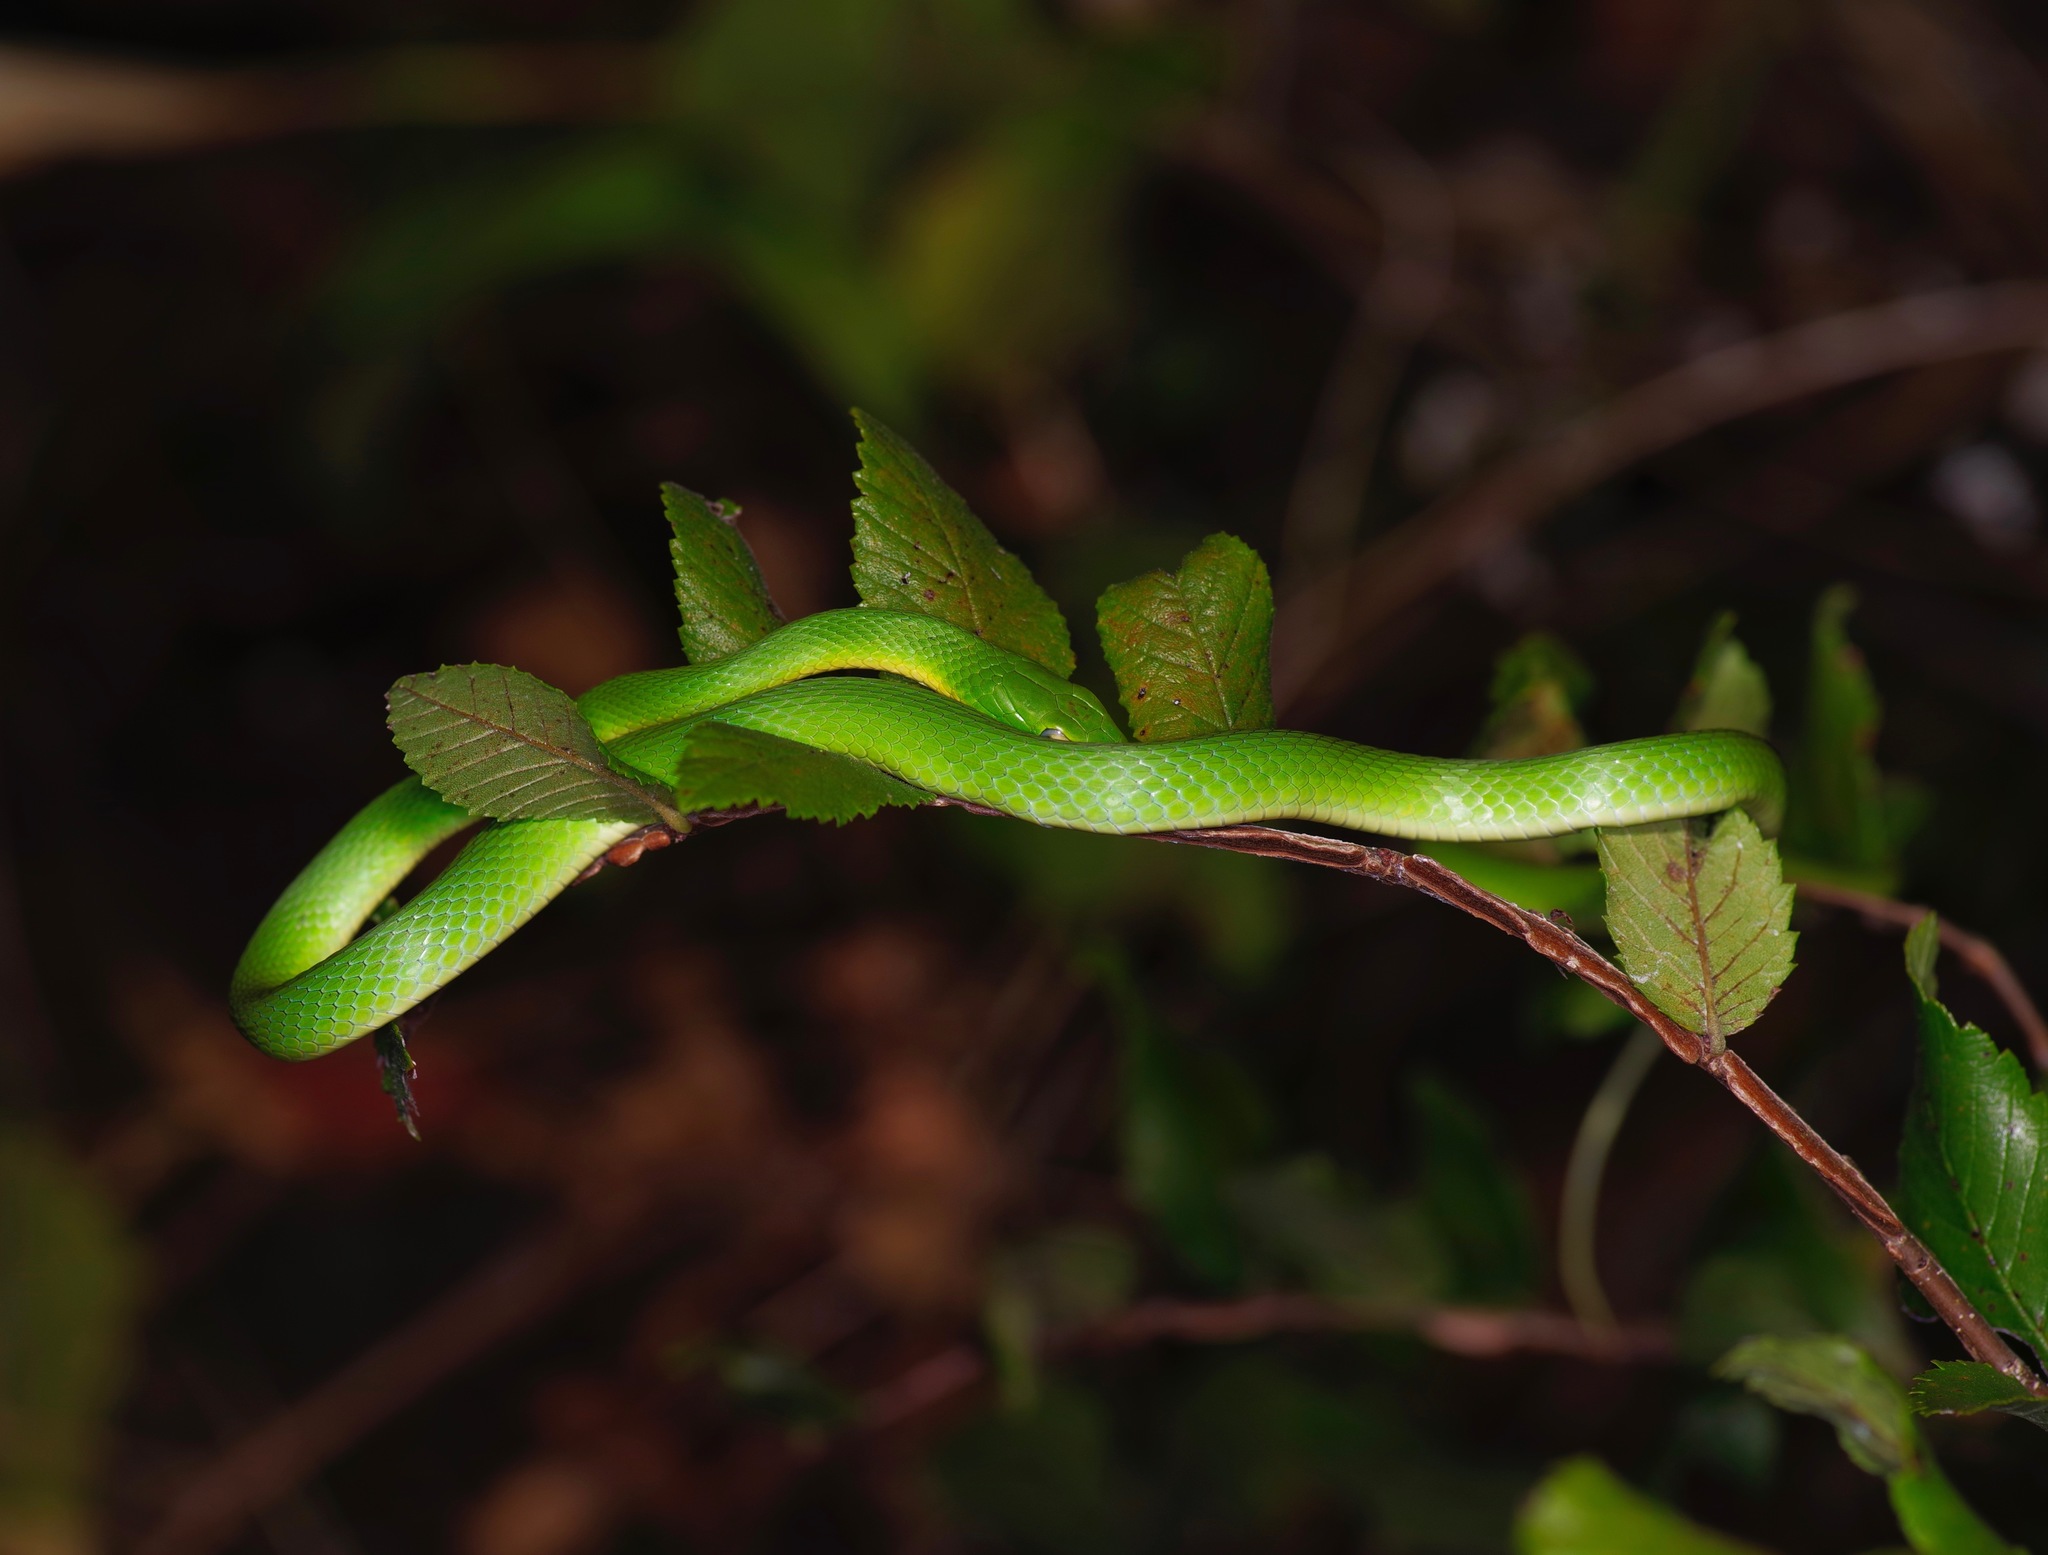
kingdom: Animalia
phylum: Chordata
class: Squamata
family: Colubridae
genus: Opheodrys
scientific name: Opheodrys aestivus
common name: Rough greensnake
